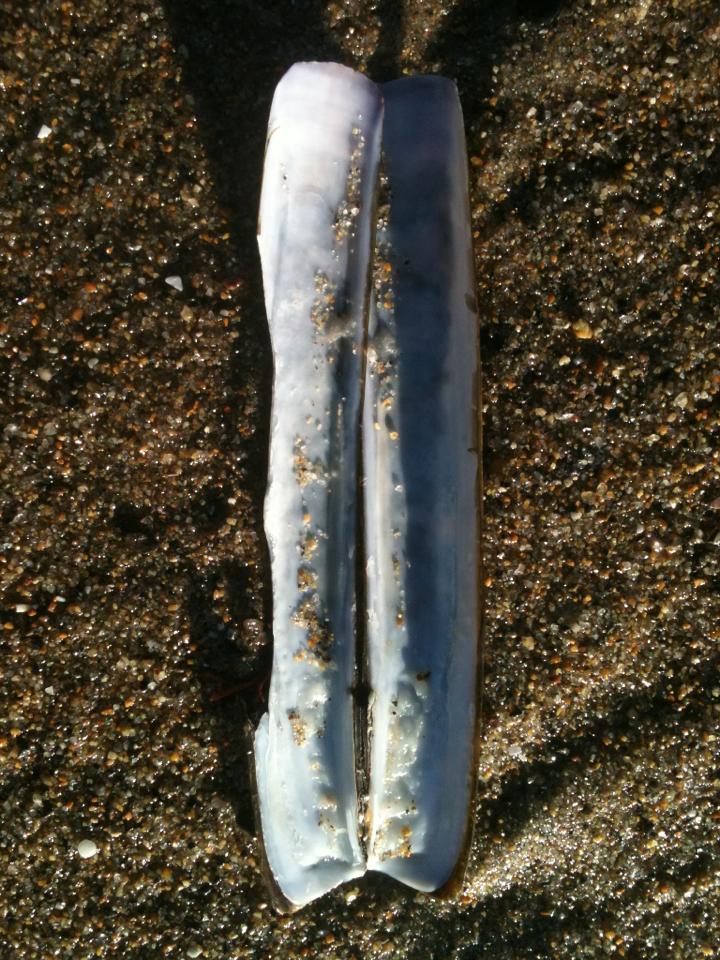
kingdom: Animalia
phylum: Mollusca
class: Bivalvia
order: Adapedonta
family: Pharidae
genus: Ensis
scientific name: Ensis leei
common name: American jack knife clam
